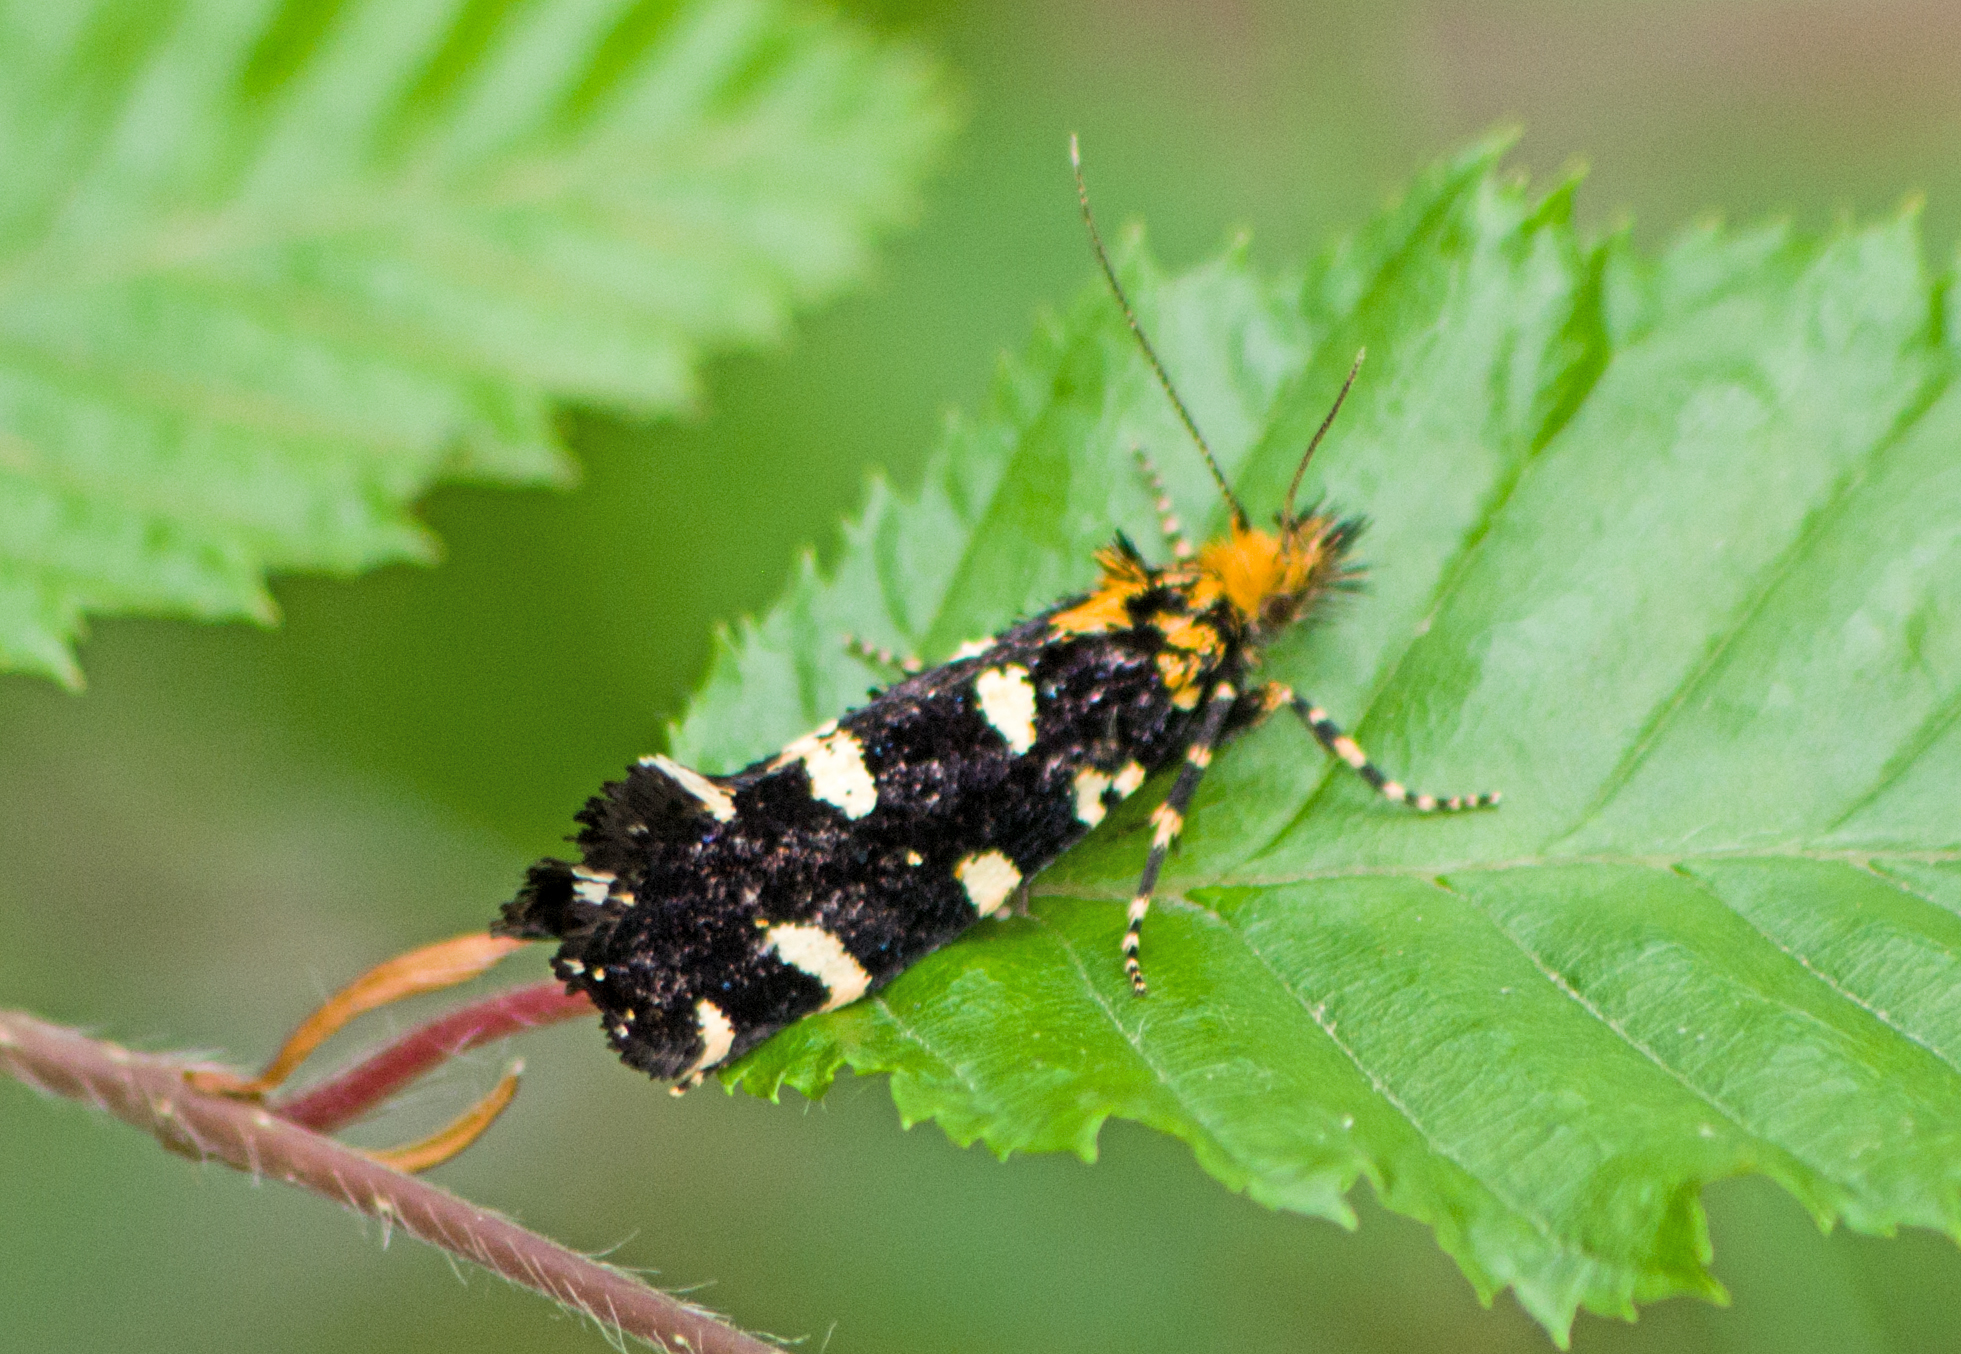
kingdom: Animalia
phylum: Arthropoda
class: Insecta
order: Lepidoptera
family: Tineidae
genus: Euplocamus
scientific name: Euplocamus ophisa
